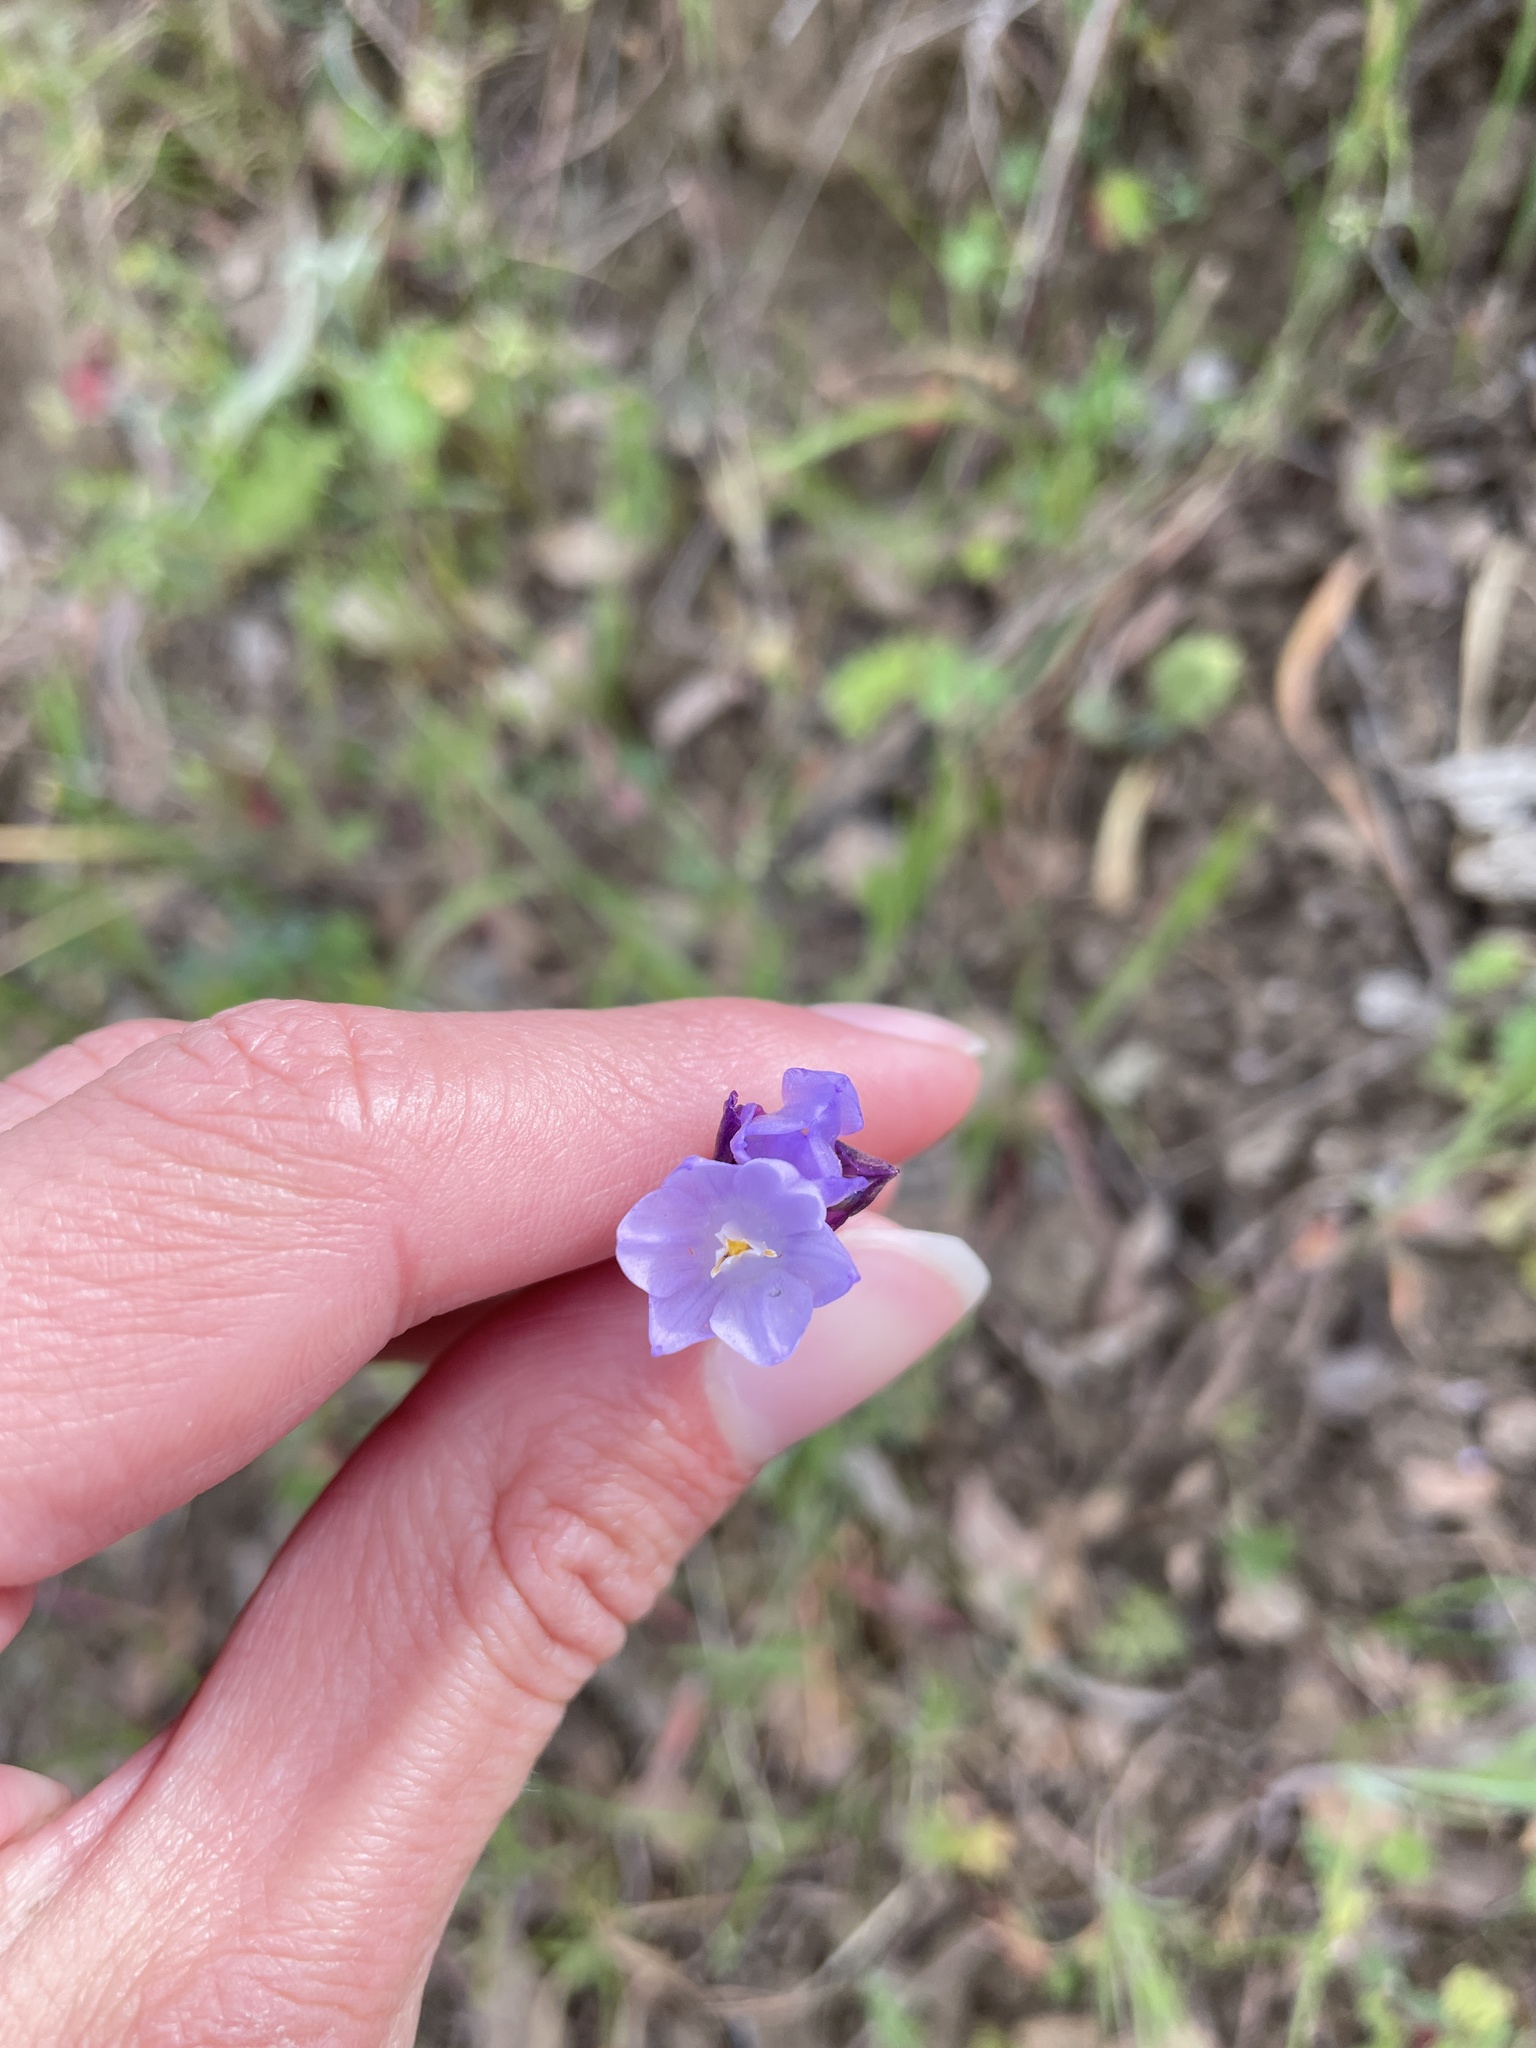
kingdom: Plantae
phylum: Tracheophyta
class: Liliopsida
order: Asparagales
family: Asparagaceae
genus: Dipterostemon
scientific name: Dipterostemon capitatus
